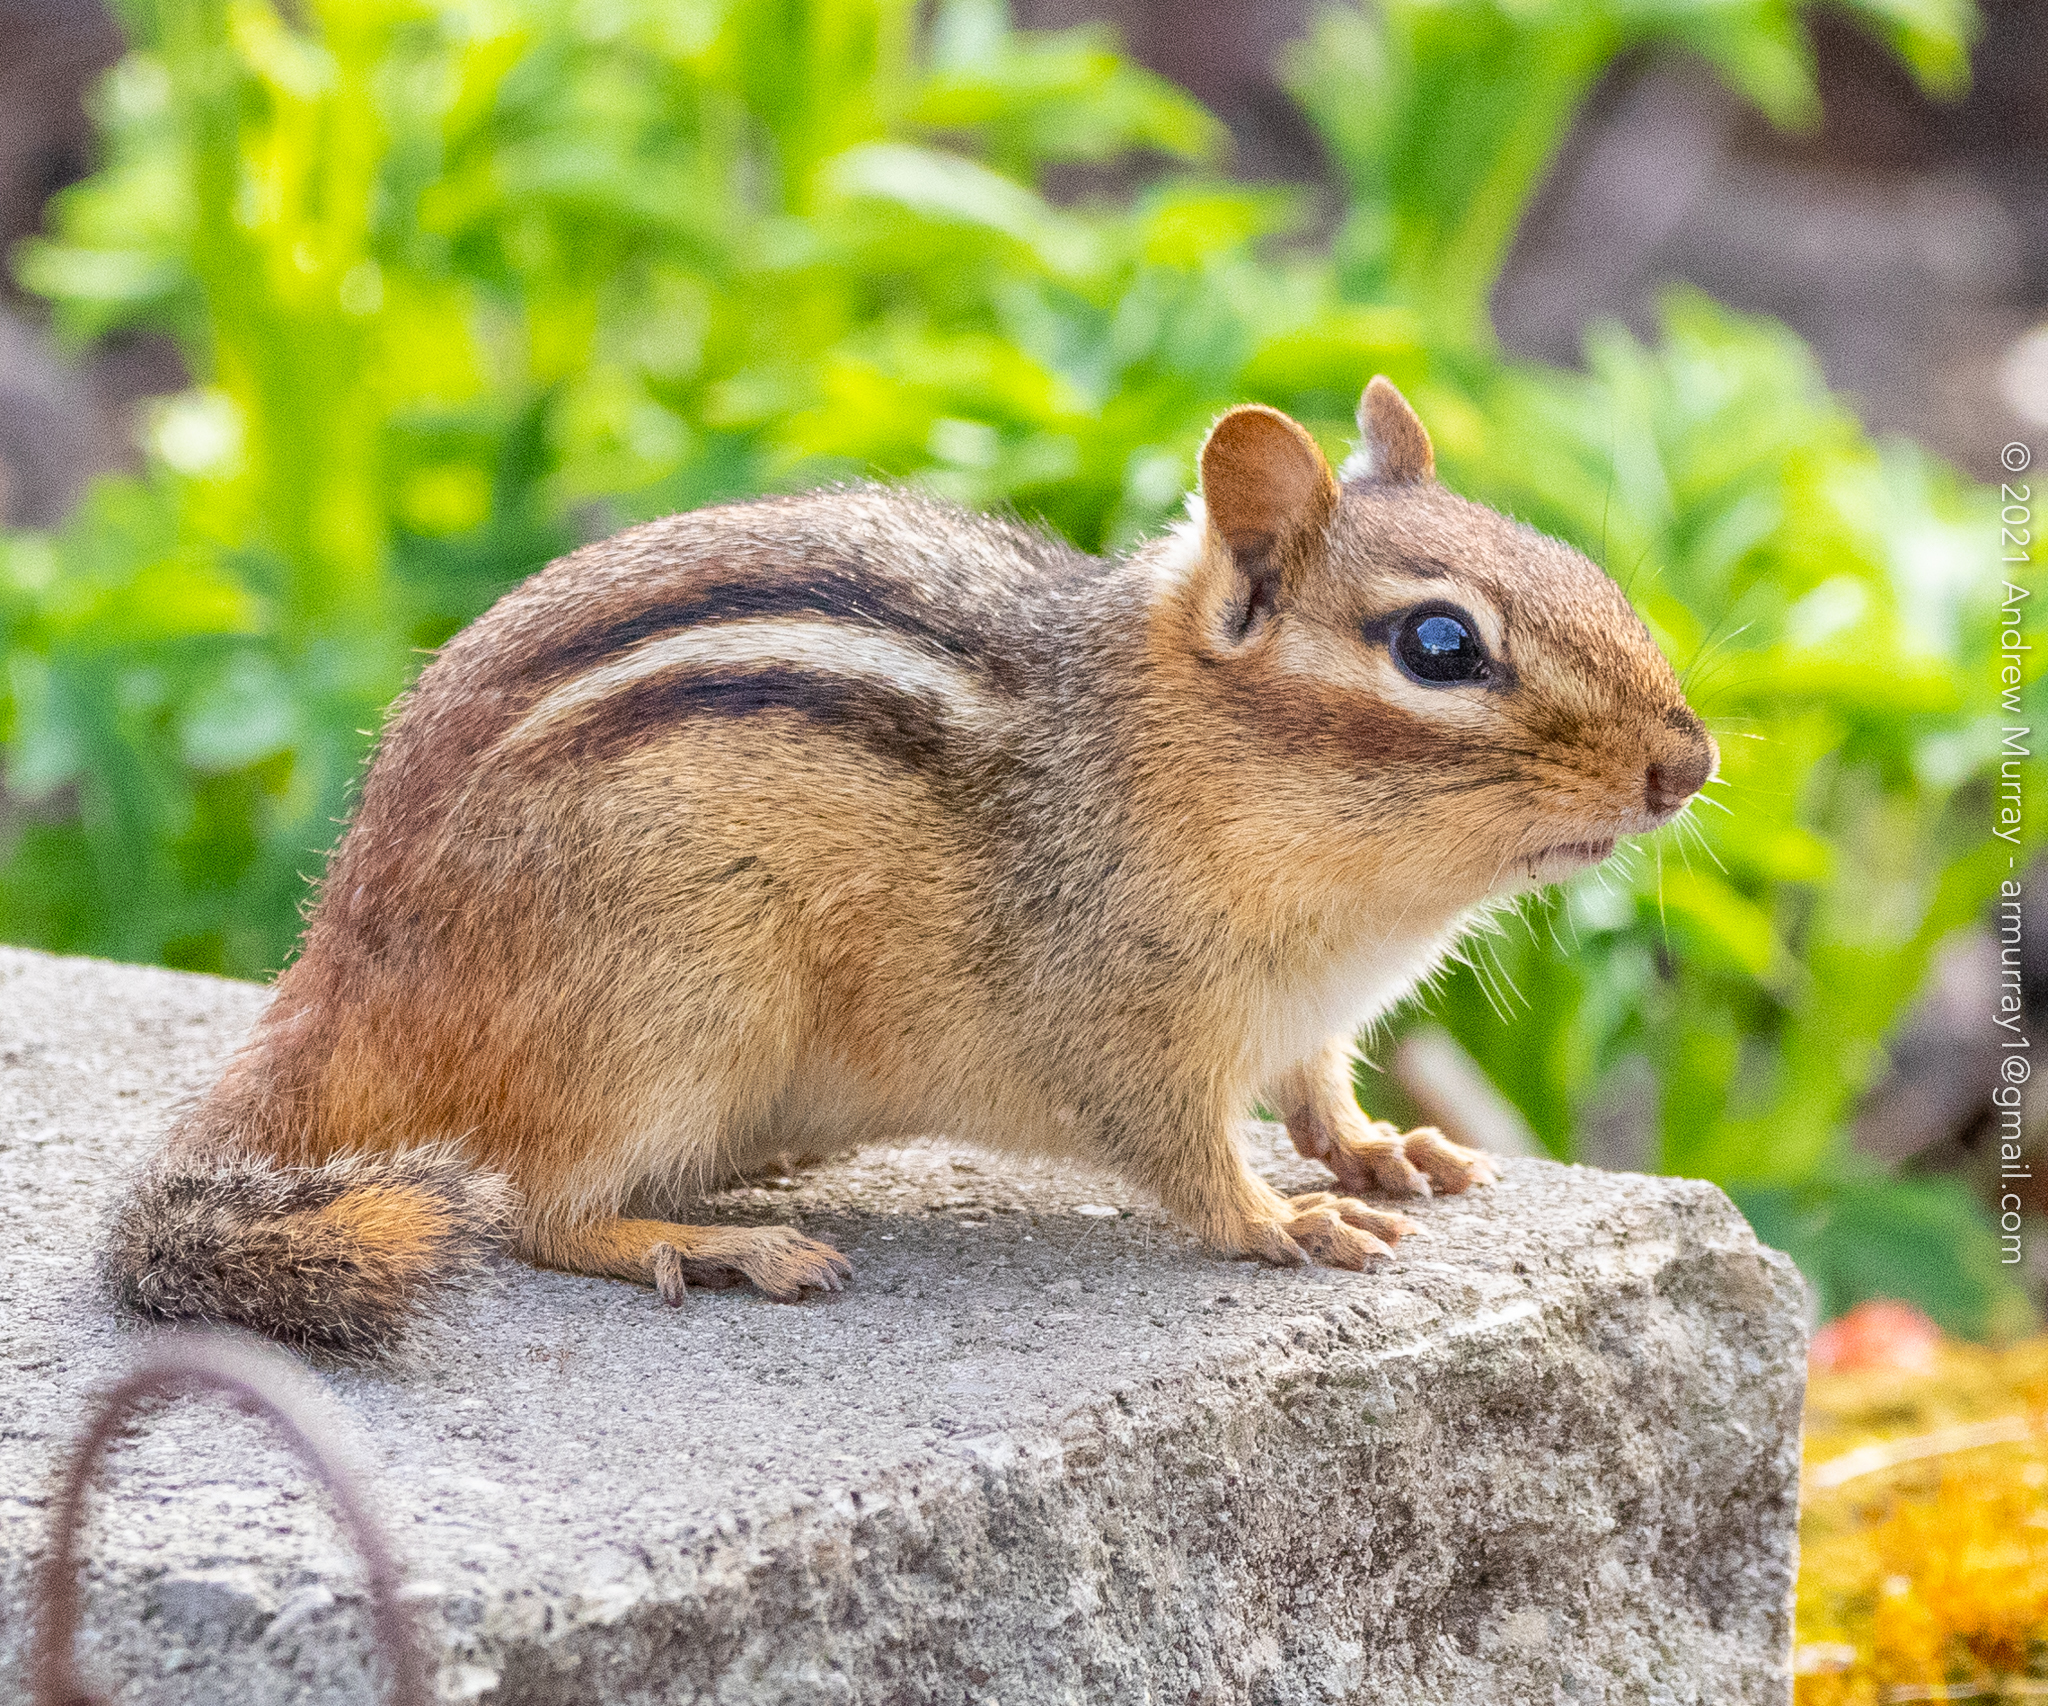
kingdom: Animalia
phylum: Chordata
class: Mammalia
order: Rodentia
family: Sciuridae
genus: Tamias
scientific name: Tamias striatus
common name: Eastern chipmunk
